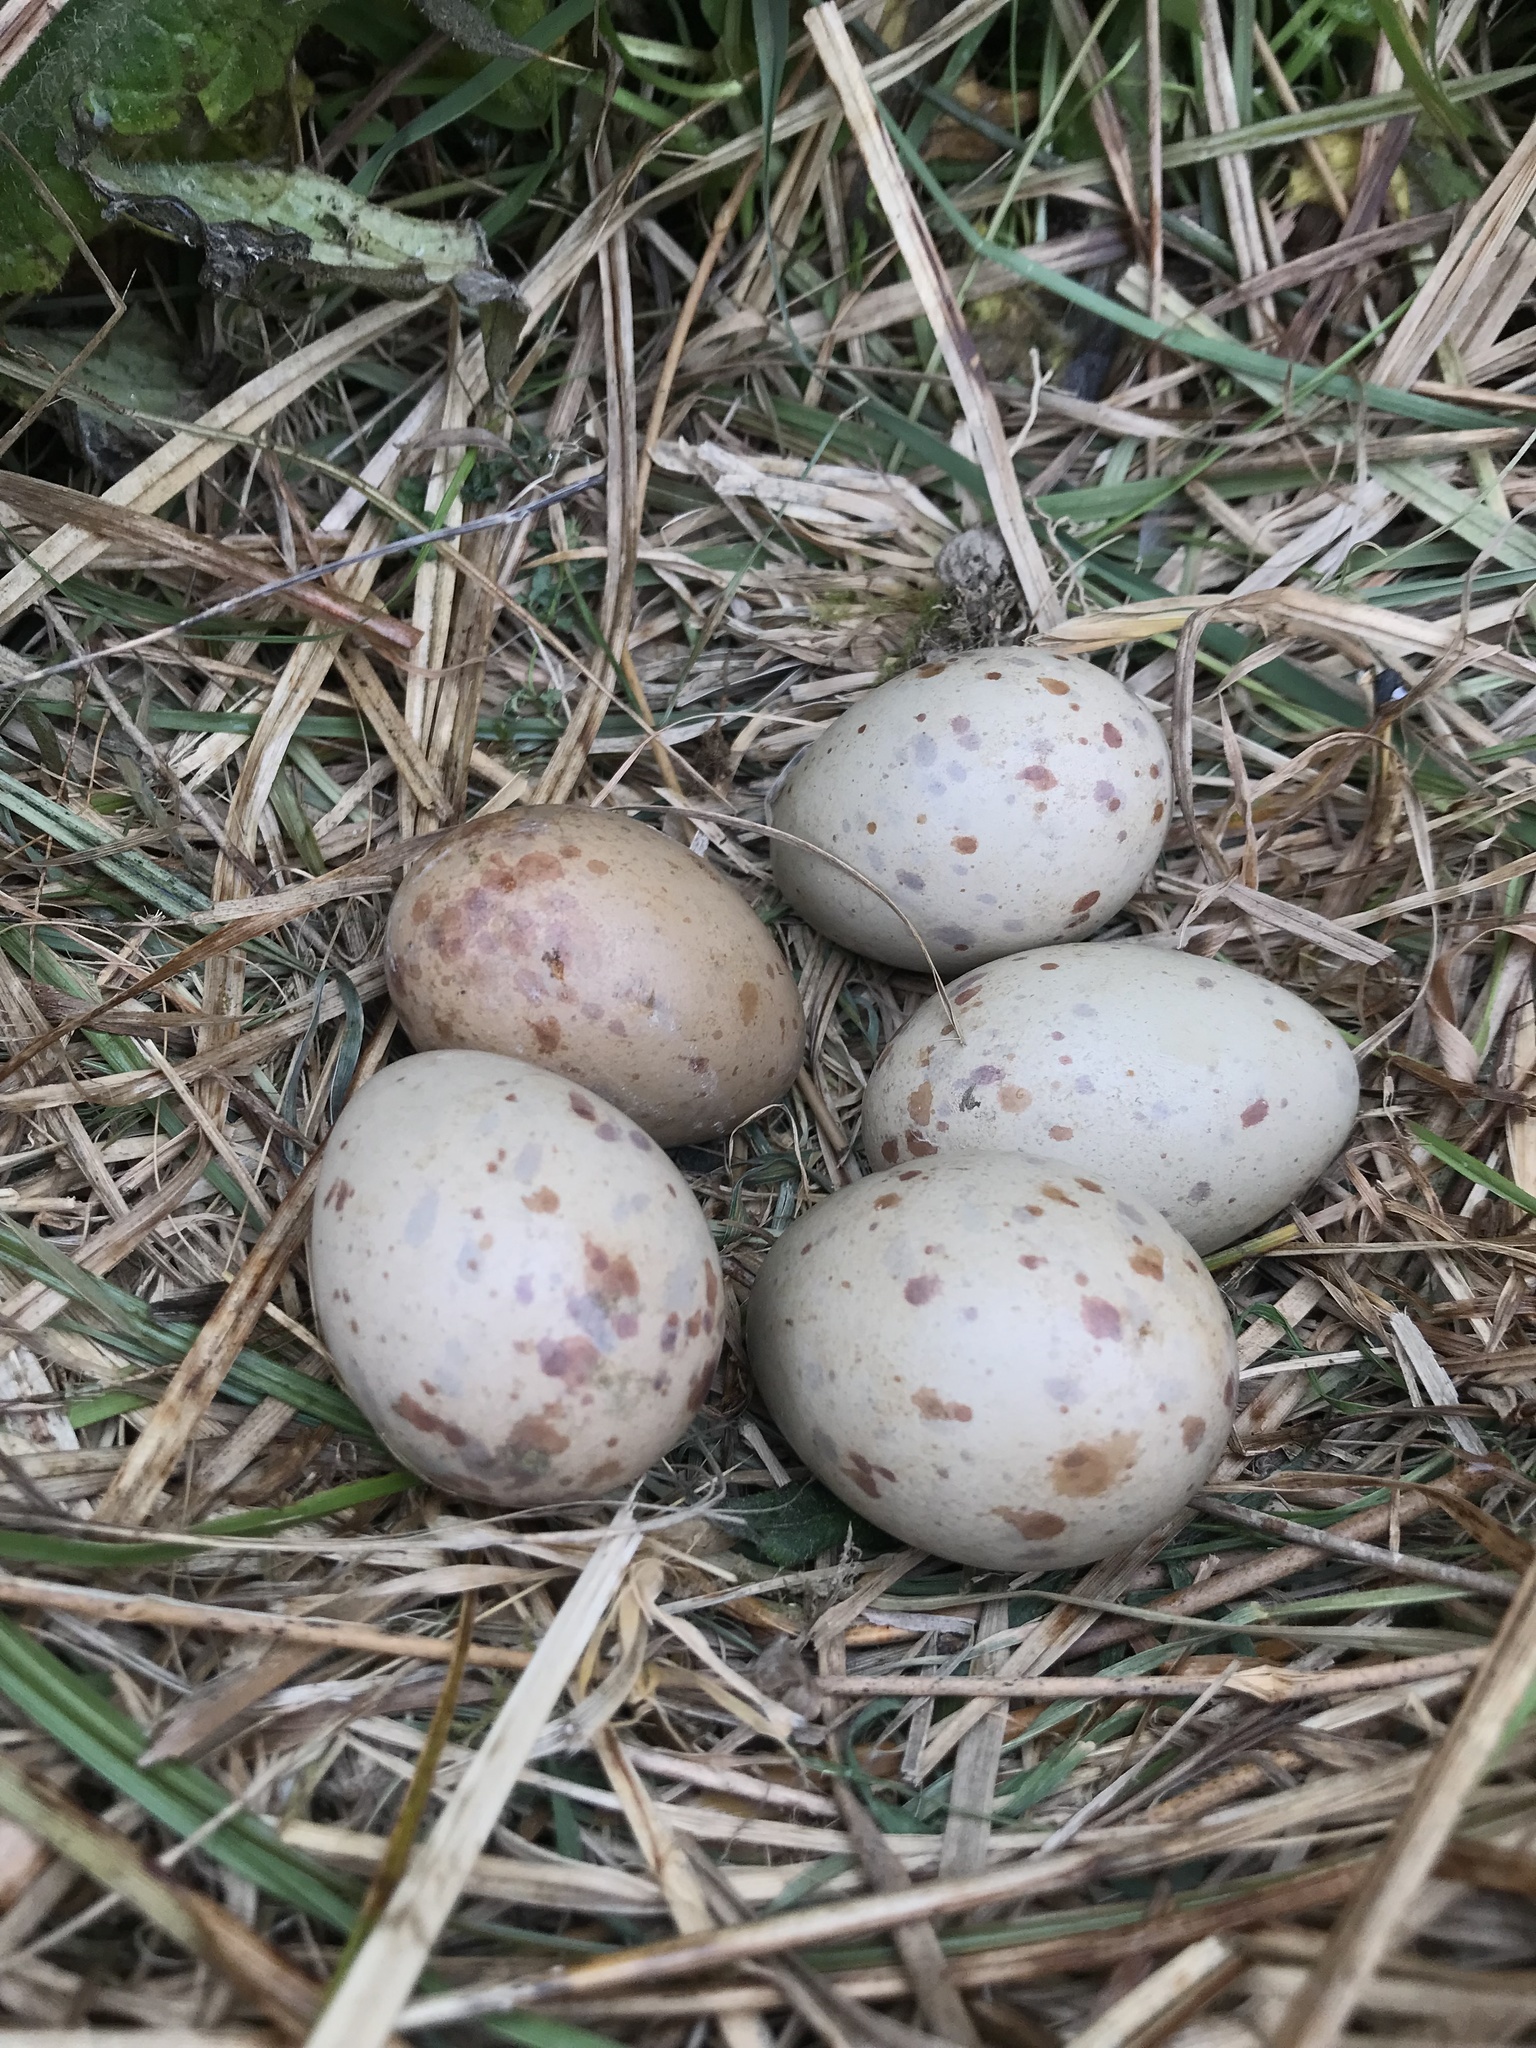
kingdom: Animalia
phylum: Chordata
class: Aves
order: Gruiformes
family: Rallidae
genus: Porphyrio
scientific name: Porphyrio melanotus
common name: Australasian swamphen
